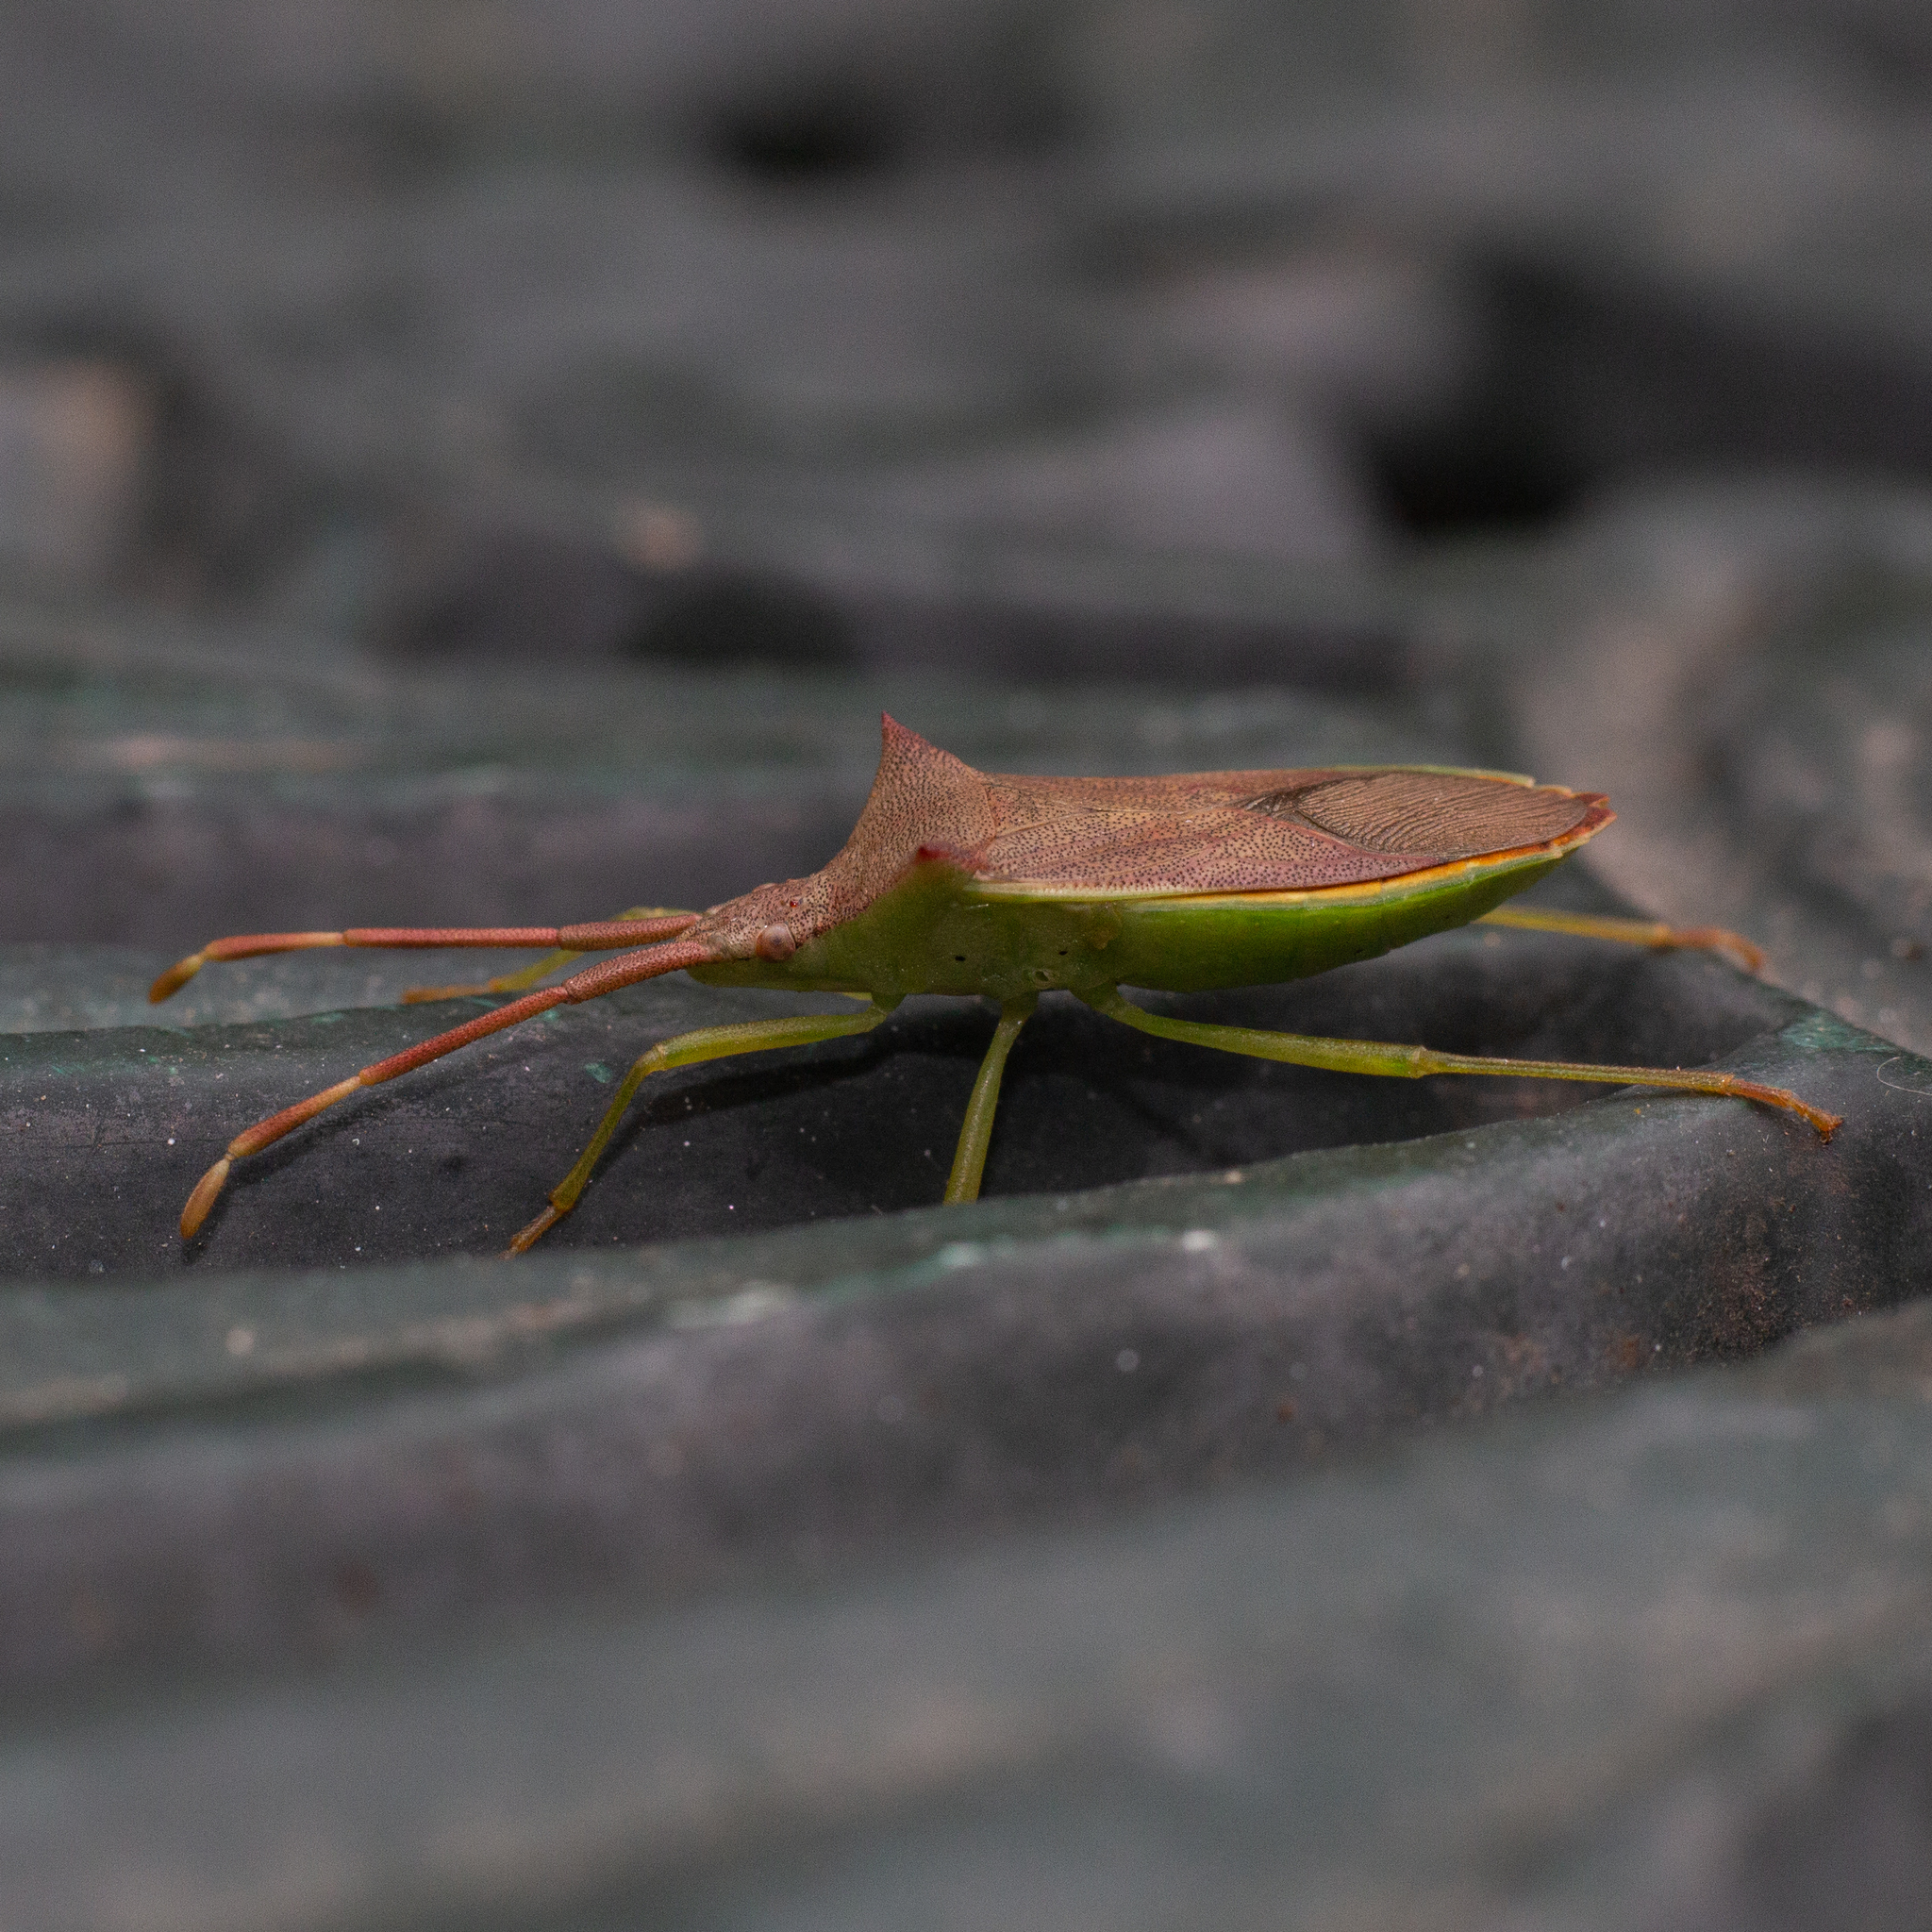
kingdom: Animalia
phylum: Arthropoda
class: Insecta
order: Hemiptera
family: Coreidae
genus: Gonocerus
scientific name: Gonocerus insidiator
